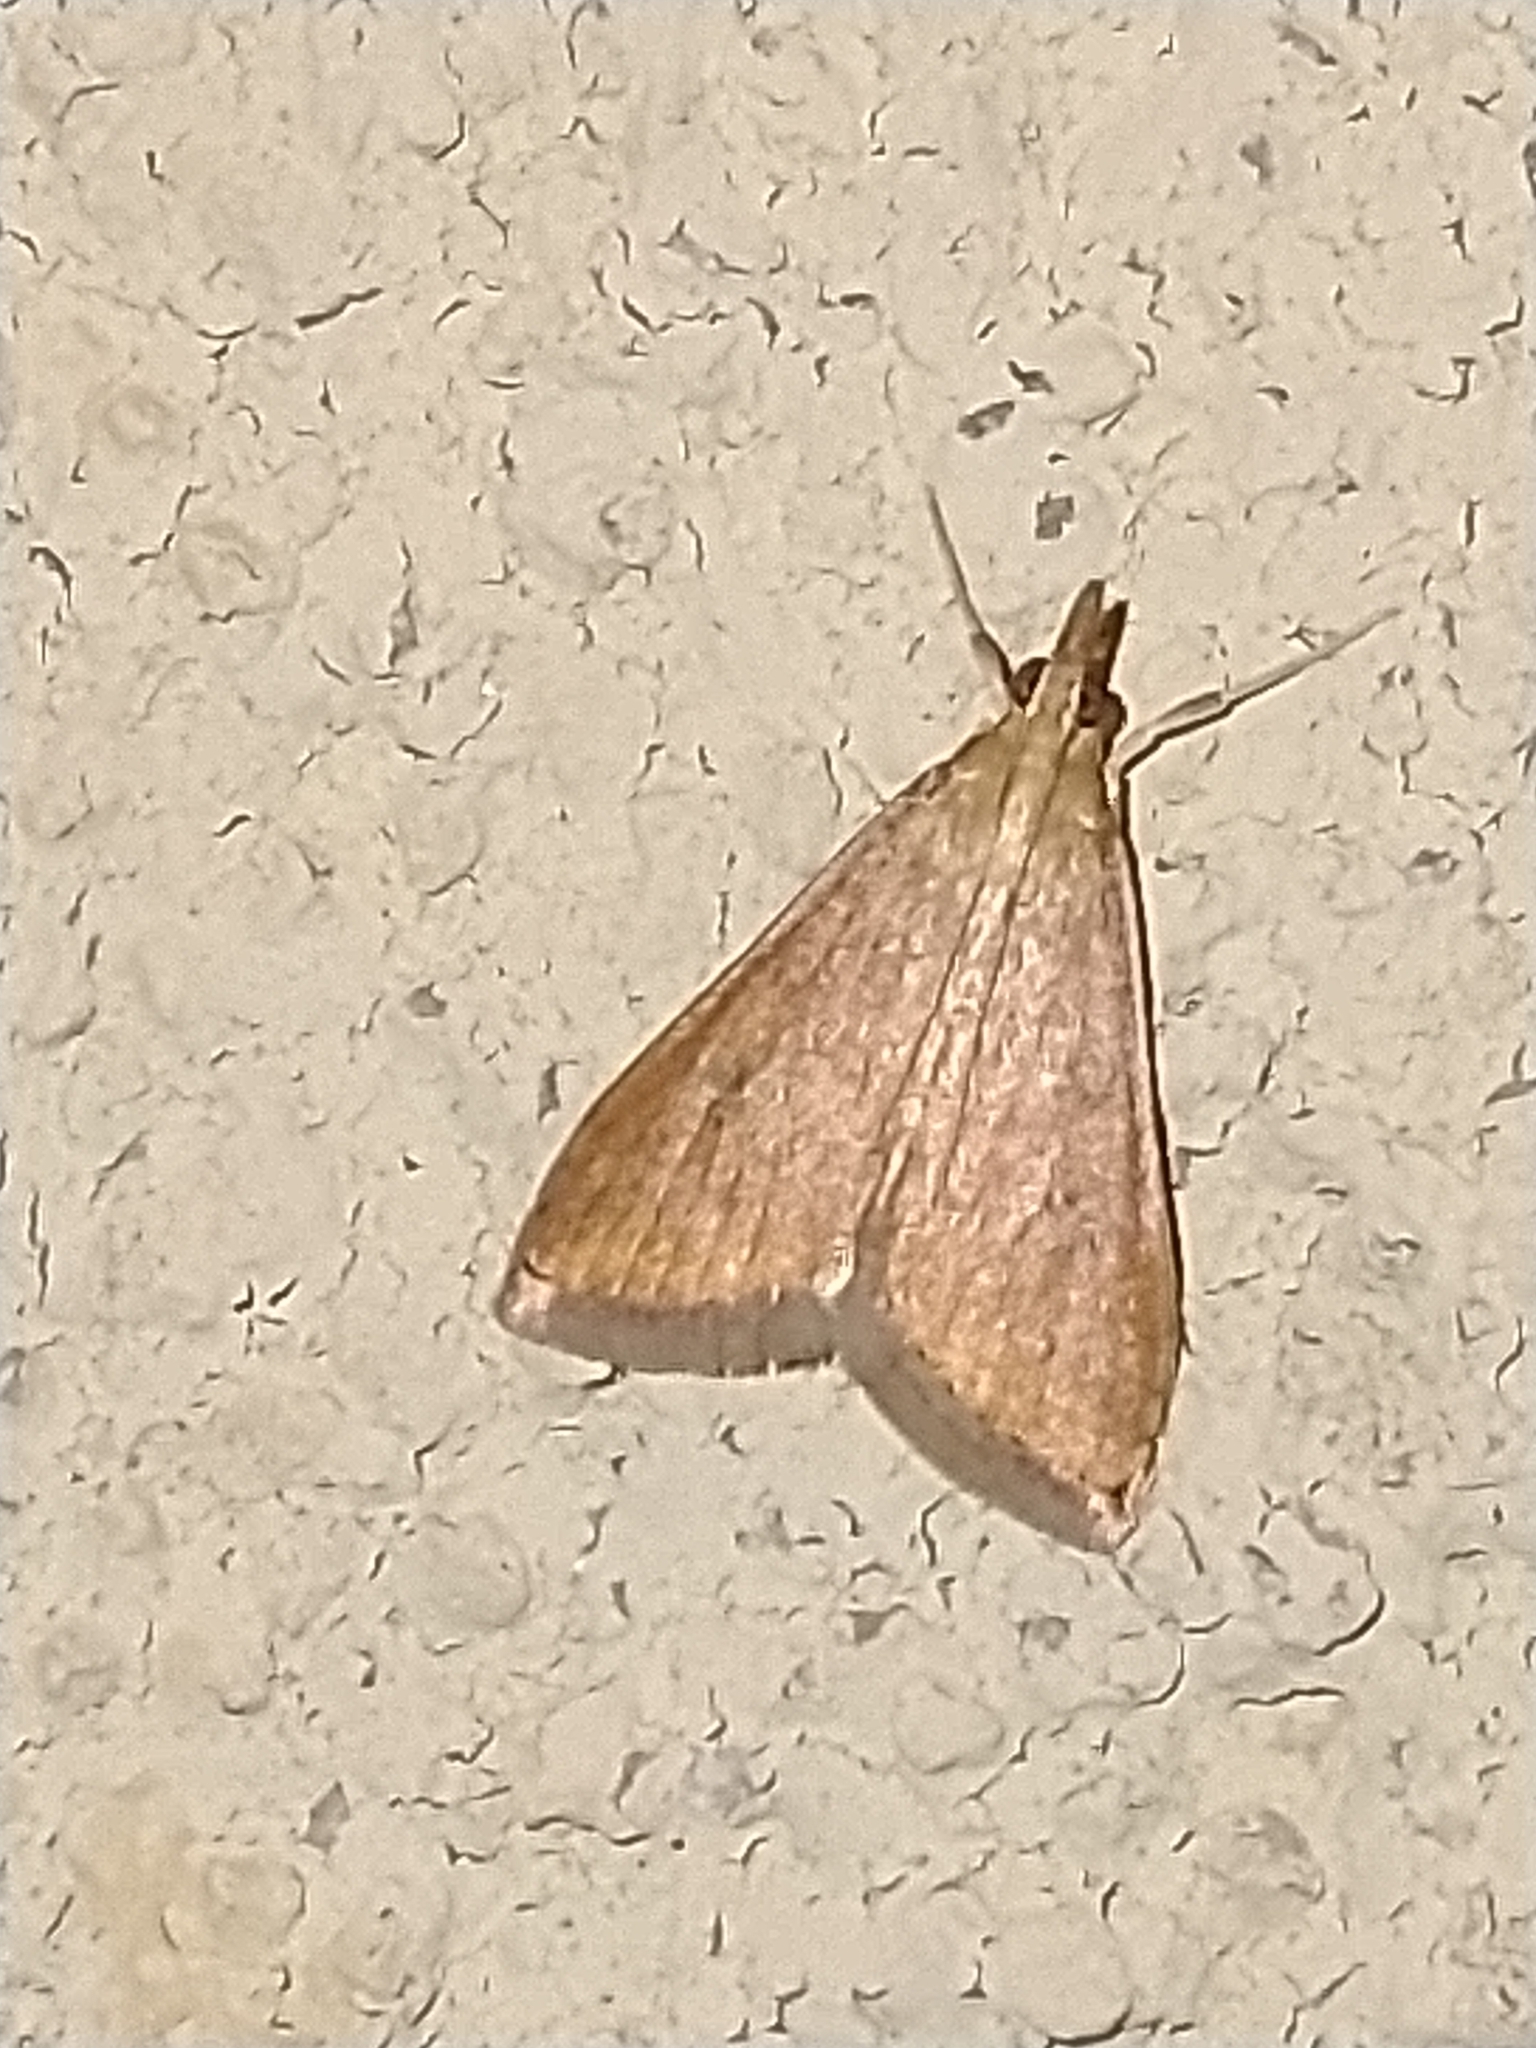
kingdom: Animalia
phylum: Arthropoda
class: Insecta
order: Lepidoptera
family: Crambidae
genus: Udea
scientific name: Udea ferrugalis
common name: Rusty dot
